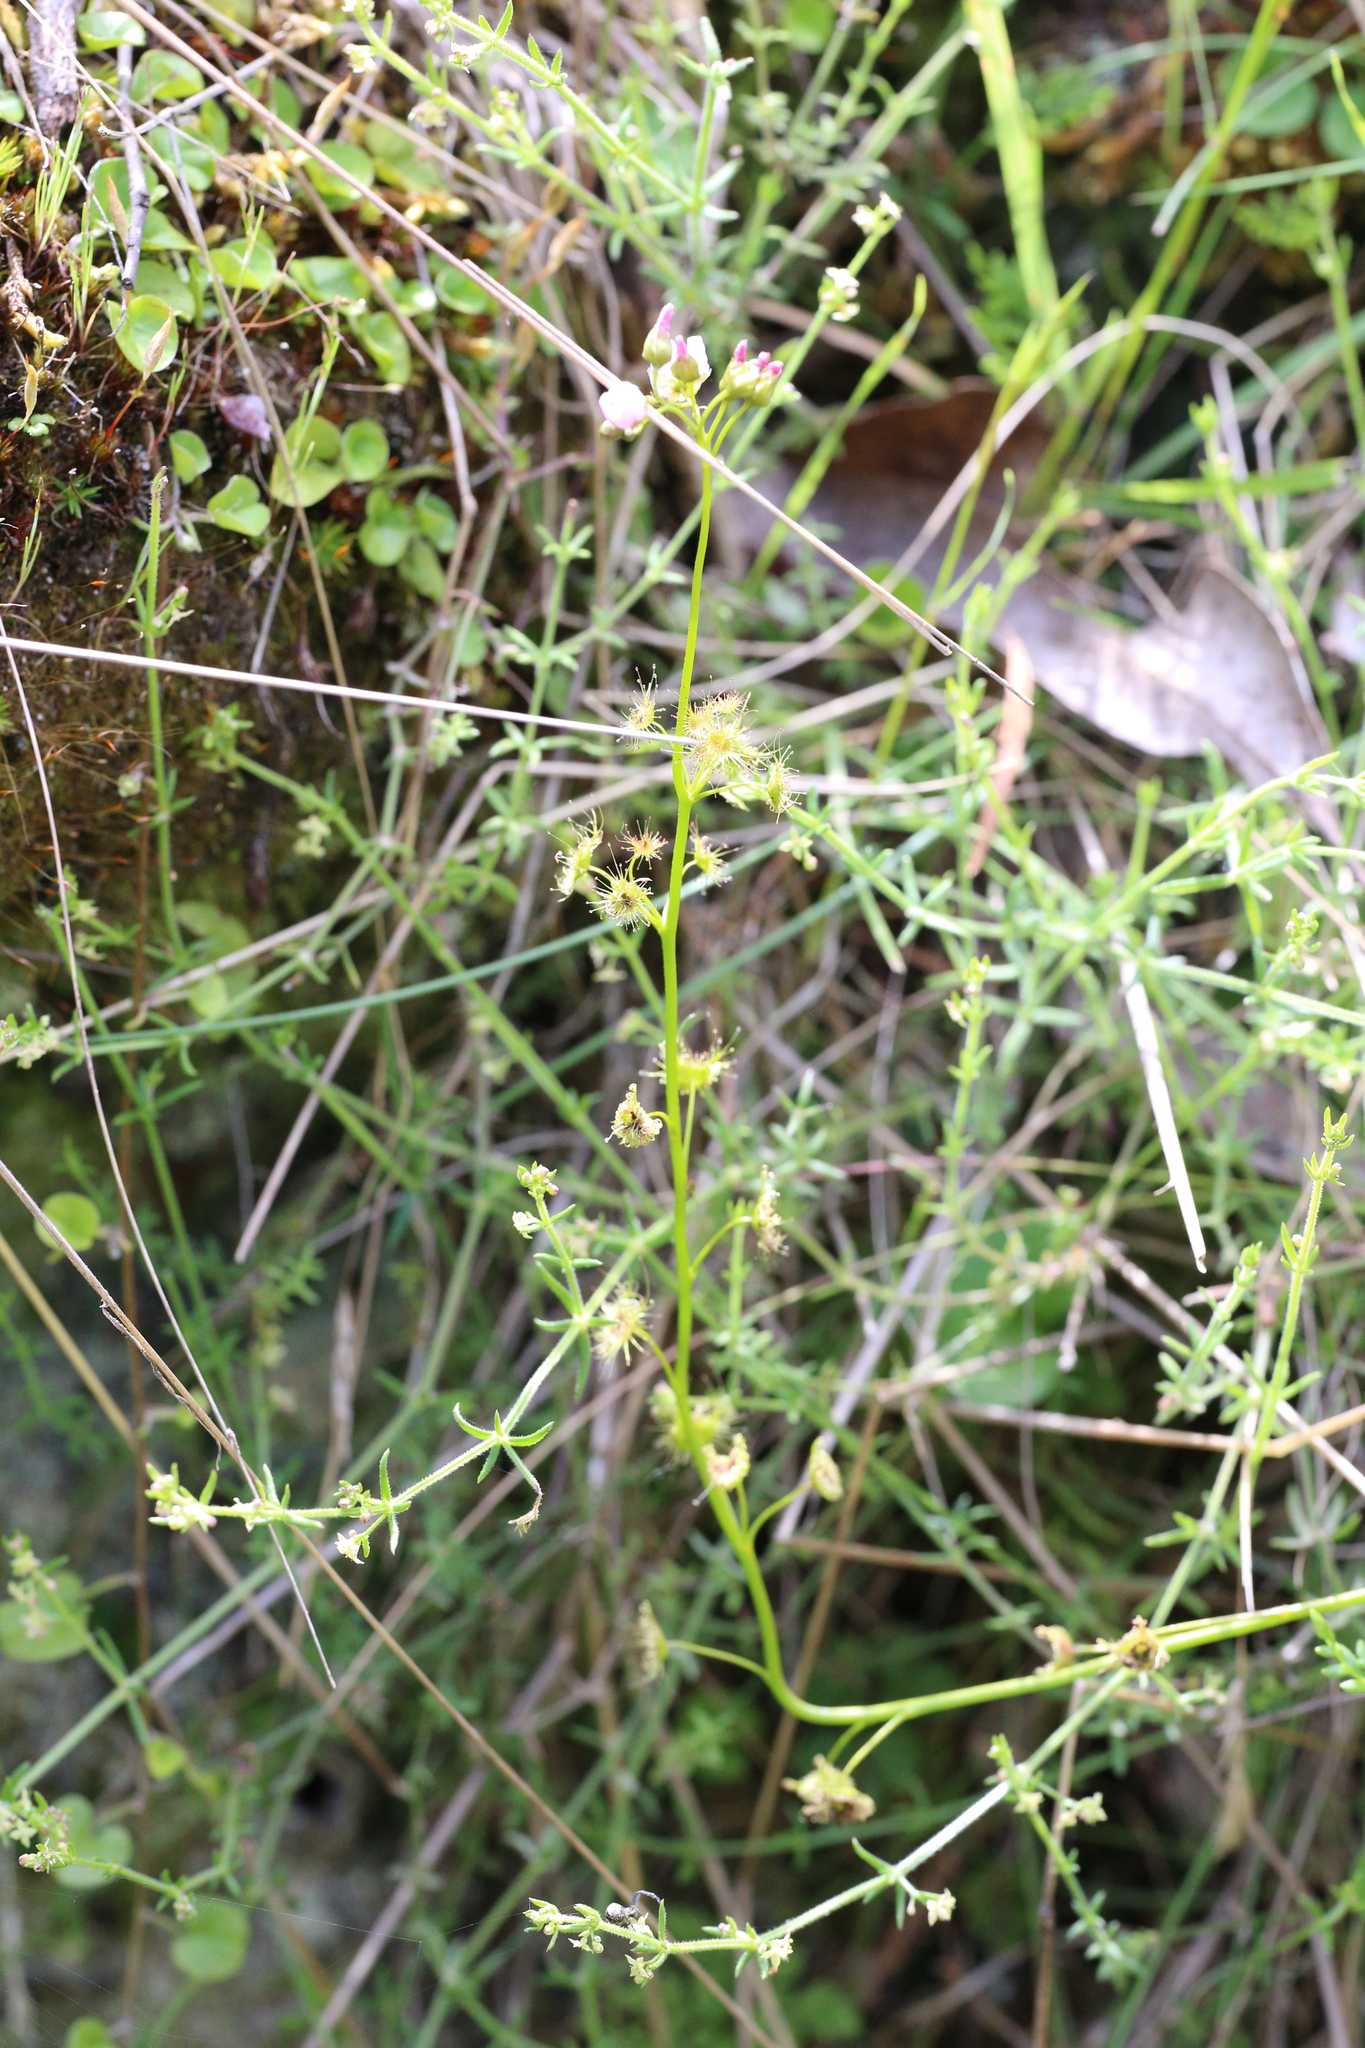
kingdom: Plantae
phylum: Tracheophyta
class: Magnoliopsida
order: Caryophyllales
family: Droseraceae
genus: Drosera
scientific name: Drosera peltata
